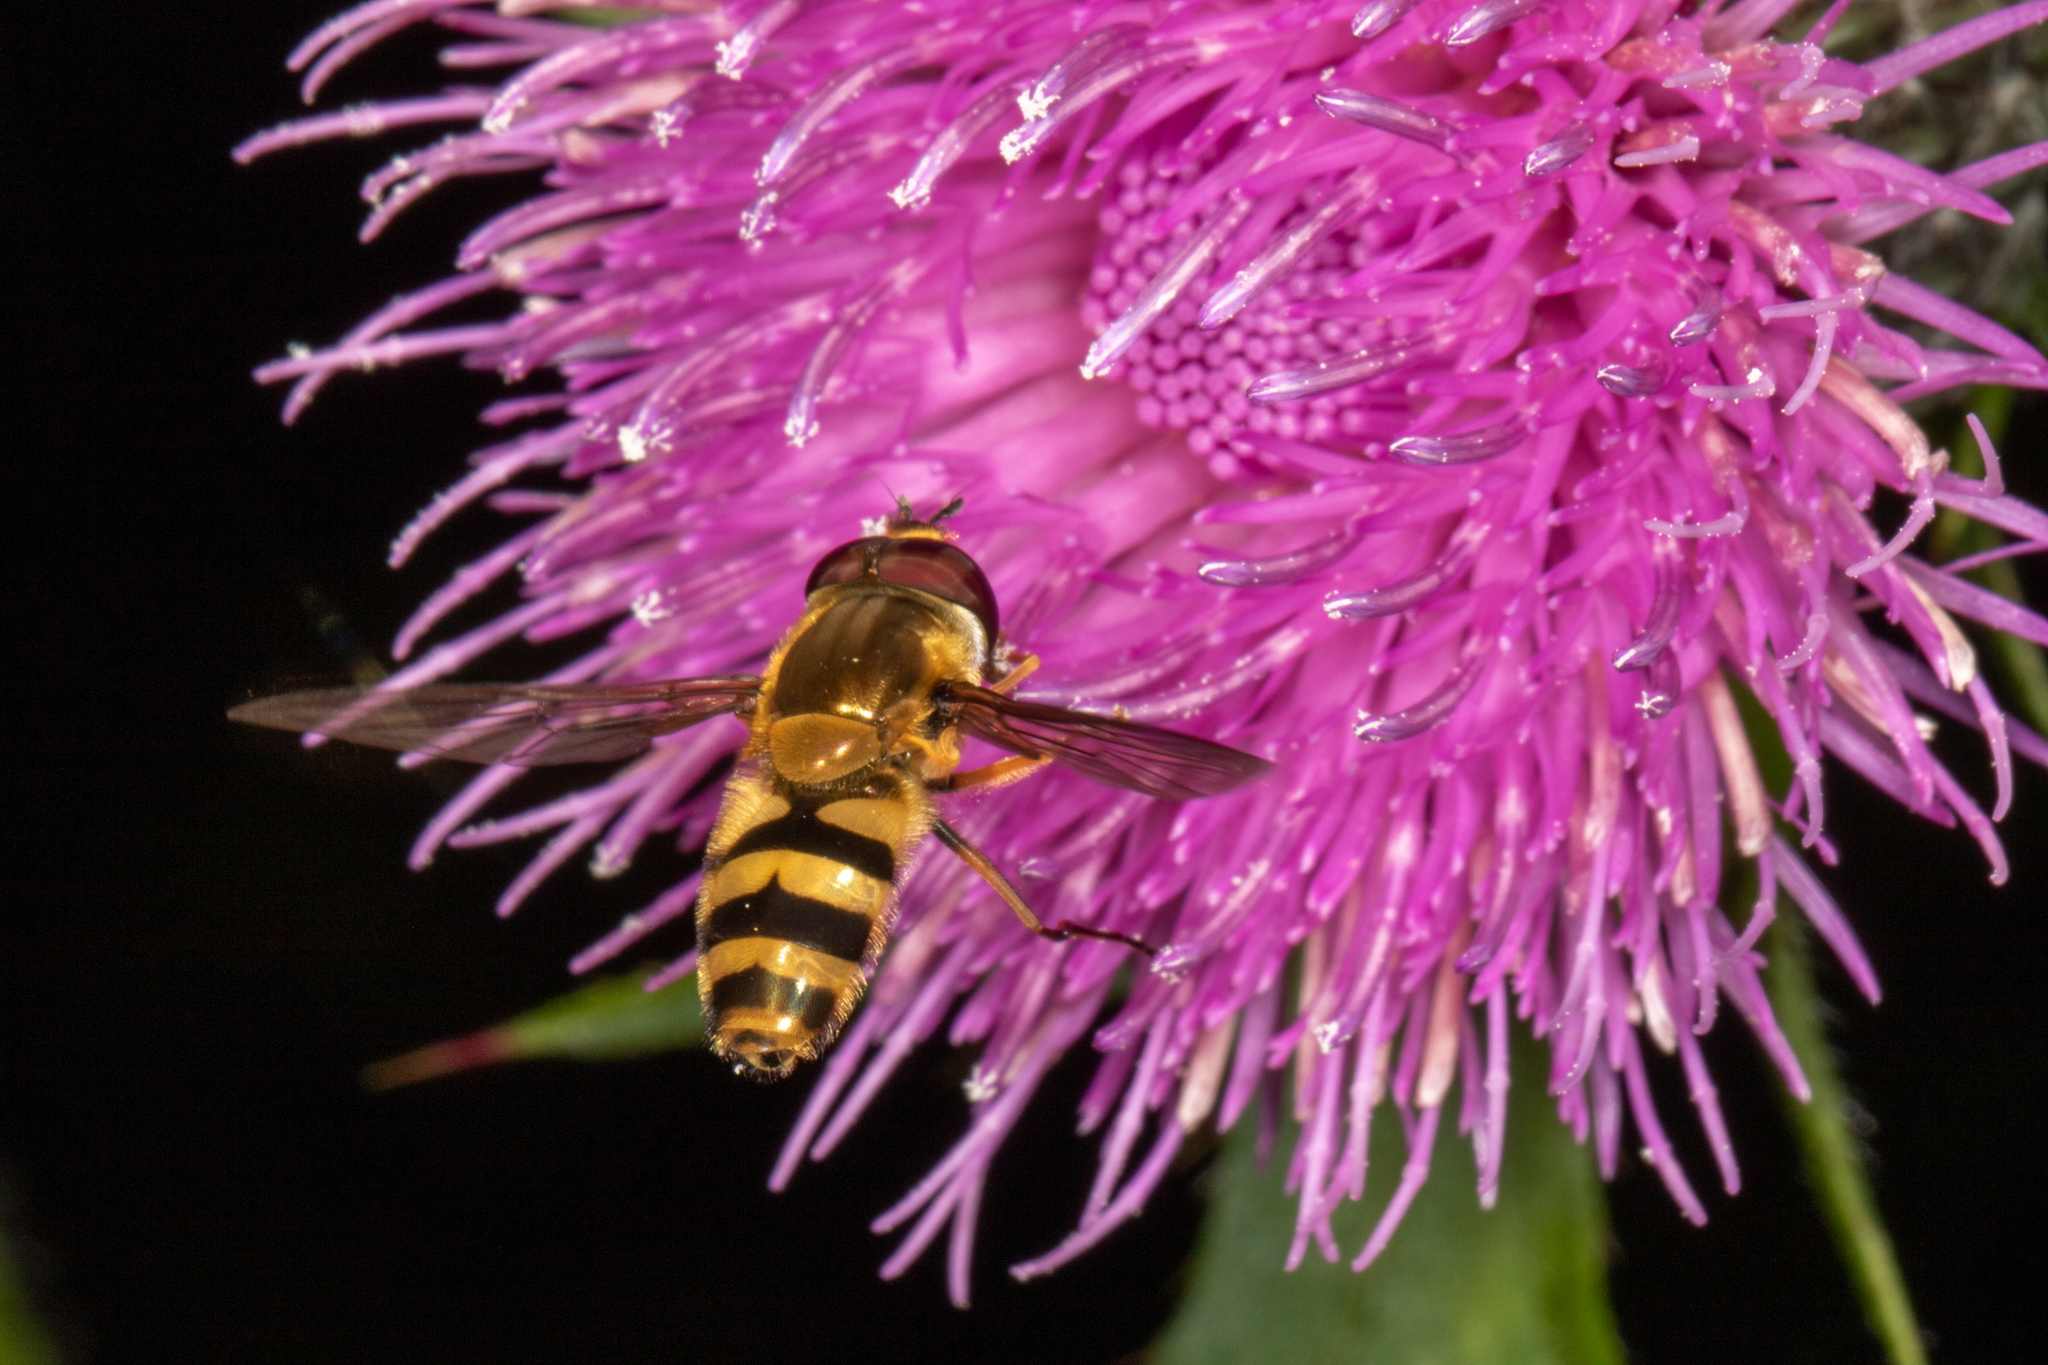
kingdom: Animalia
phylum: Arthropoda
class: Insecta
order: Diptera
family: Syrphidae
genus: Epistrophe
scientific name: Epistrophe grossulariae
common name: Black-horned smoothtail
